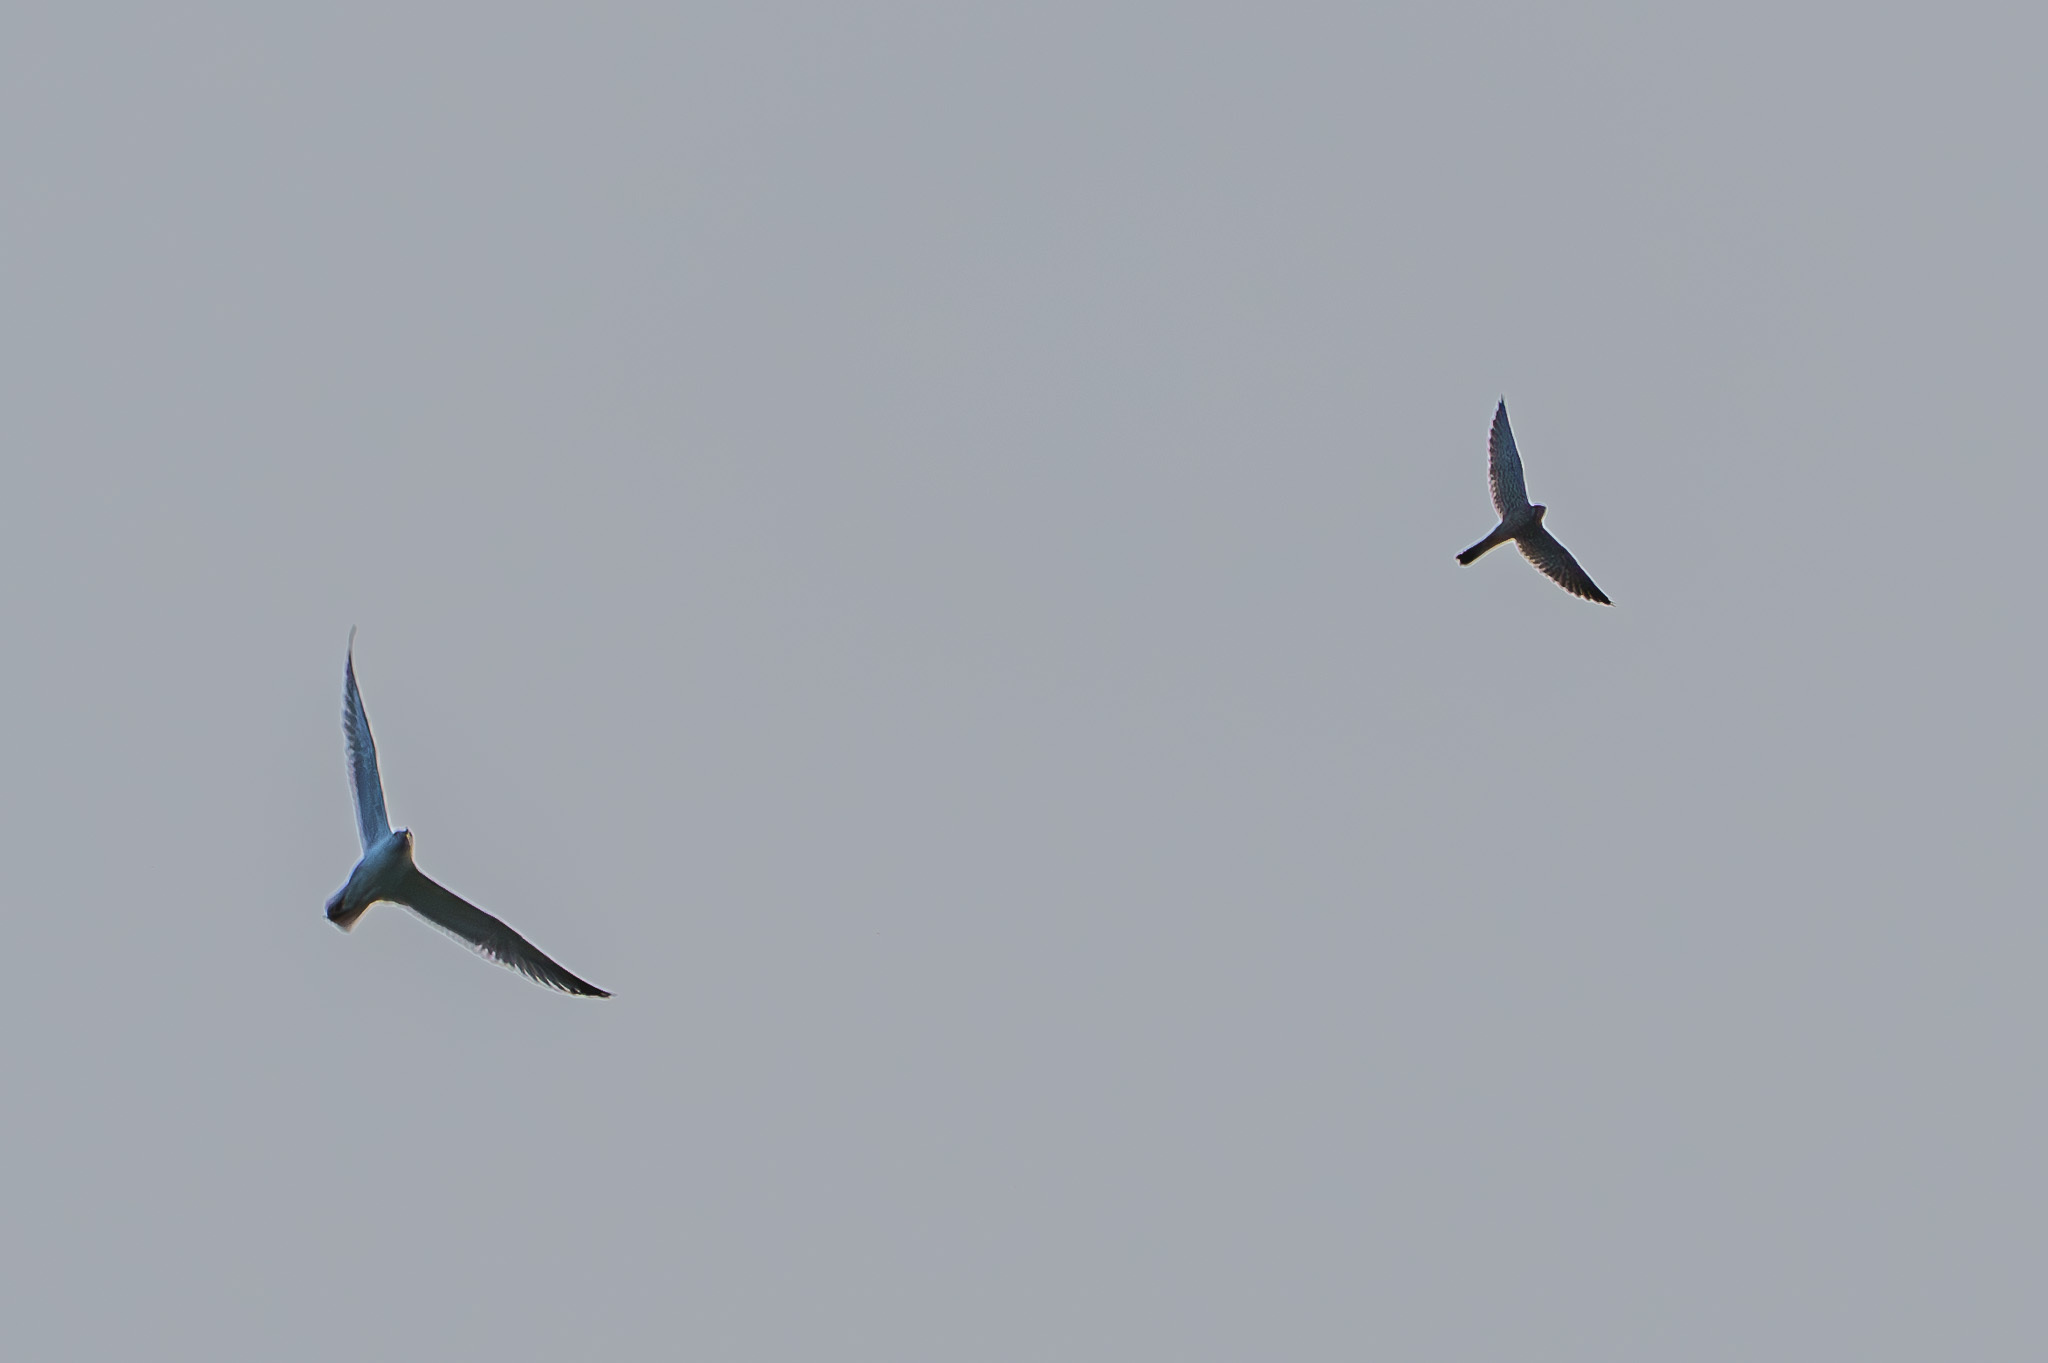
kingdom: Animalia
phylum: Chordata
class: Aves
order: Falconiformes
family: Falconidae
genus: Falco
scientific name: Falco tinnunculus
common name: Common kestrel
